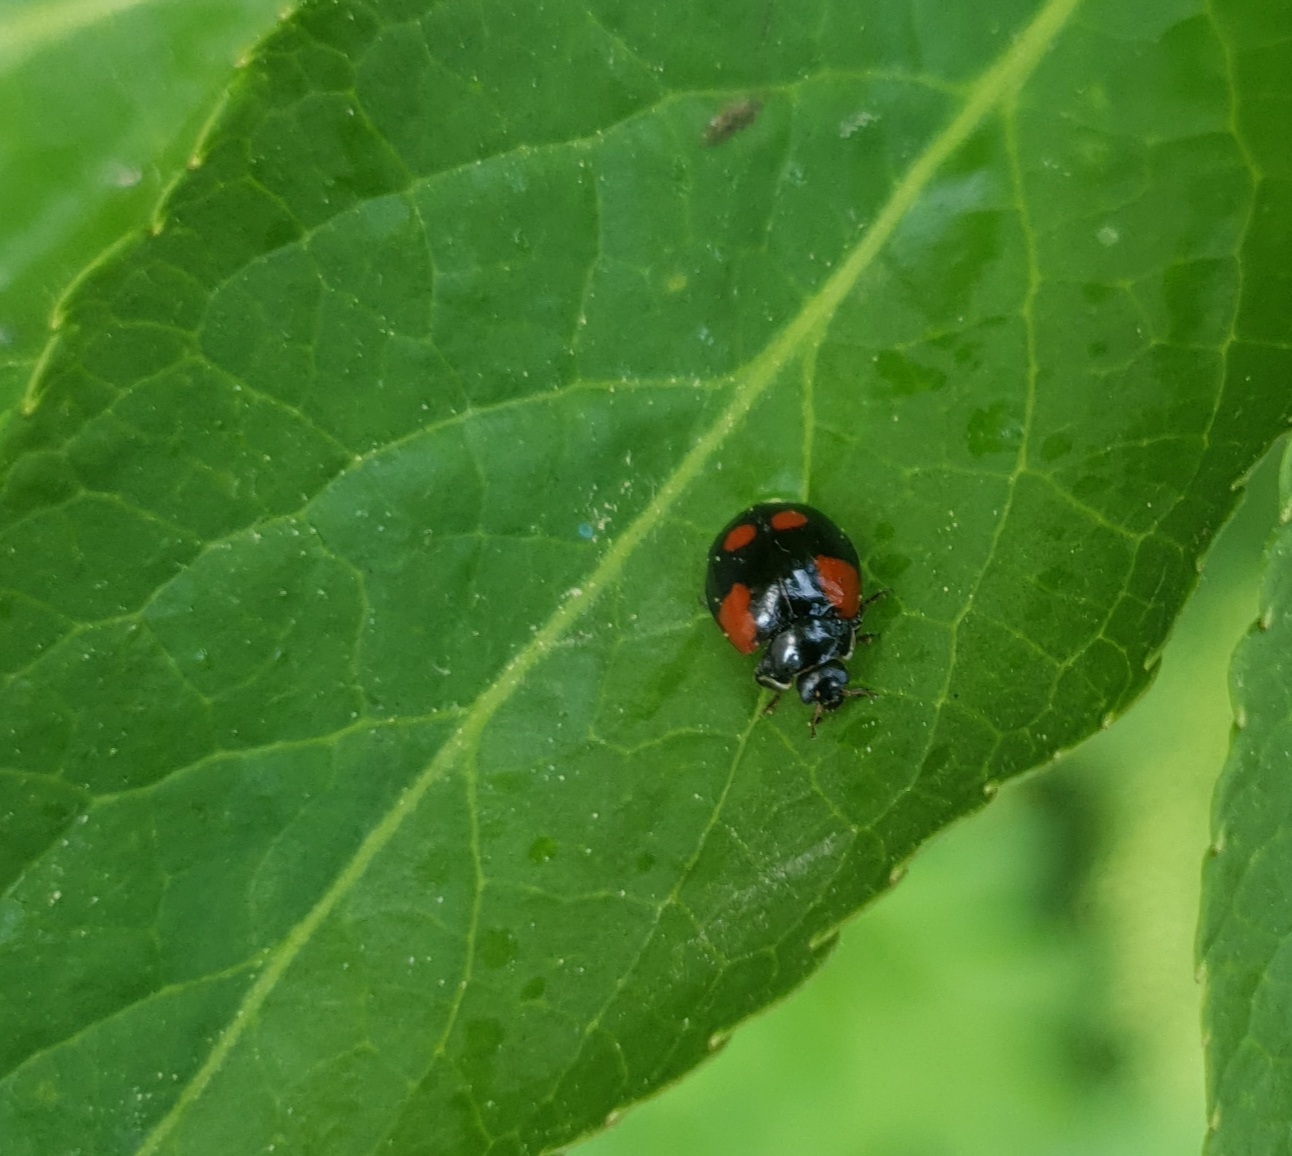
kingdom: Animalia
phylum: Arthropoda
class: Insecta
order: Coleoptera
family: Coccinellidae
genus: Adalia
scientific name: Adalia bipunctata
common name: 2-spot ladybird
